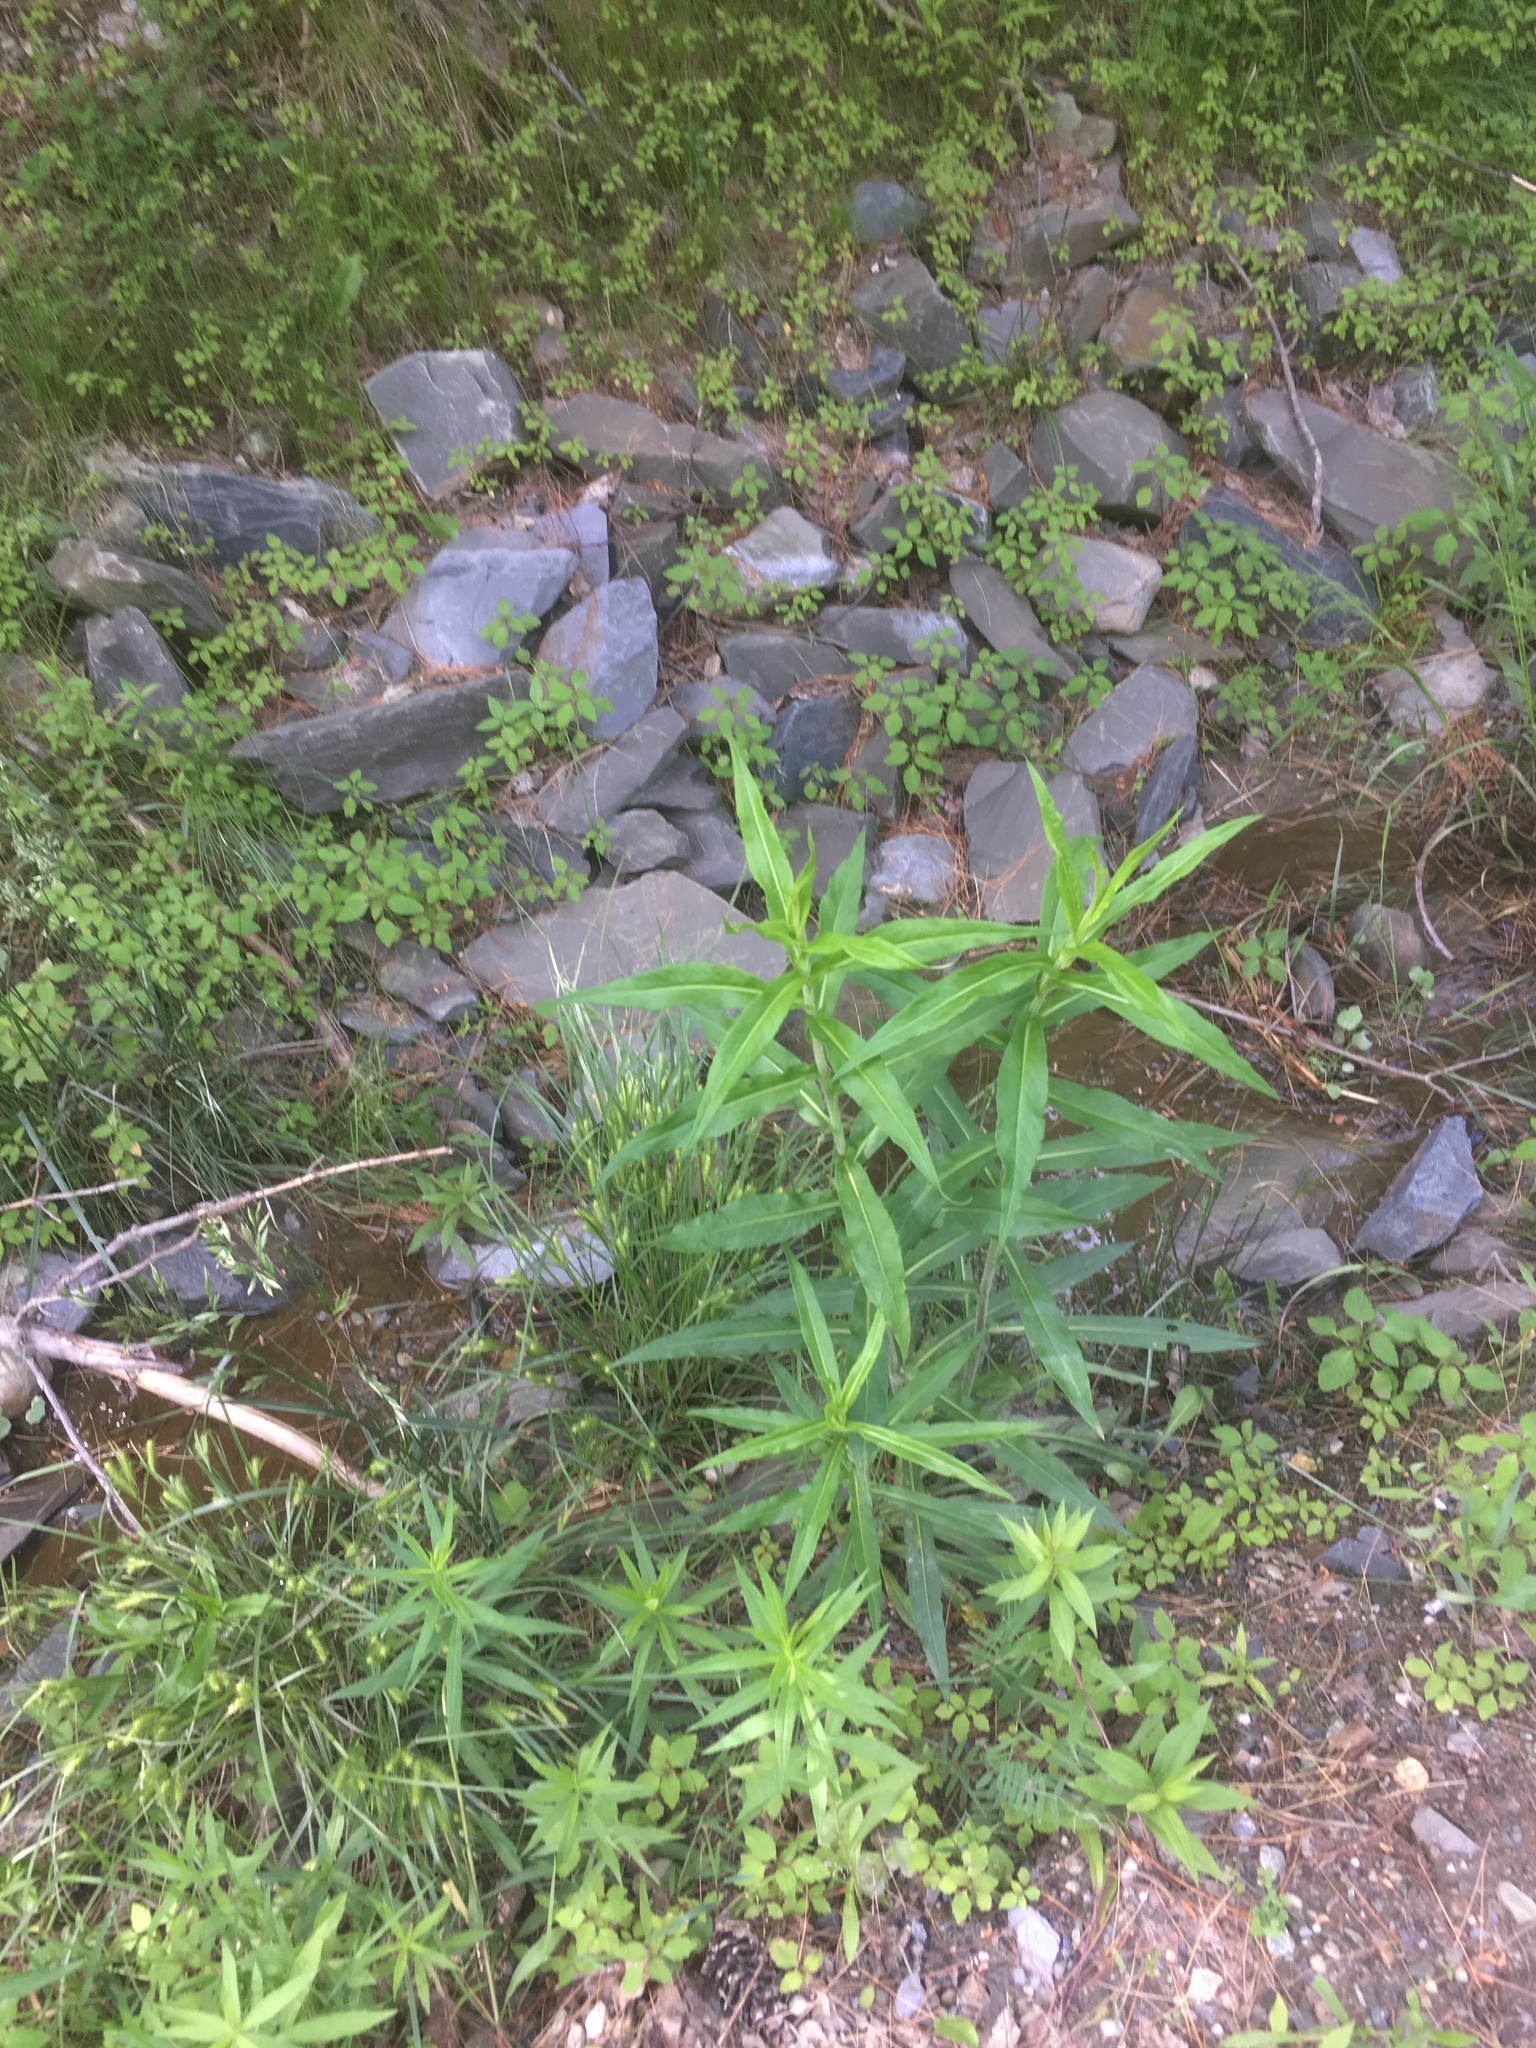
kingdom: Plantae
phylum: Tracheophyta
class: Magnoliopsida
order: Asterales
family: Asteraceae
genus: Symphyotrichum
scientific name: Symphyotrichum puniceum
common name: Bog aster
